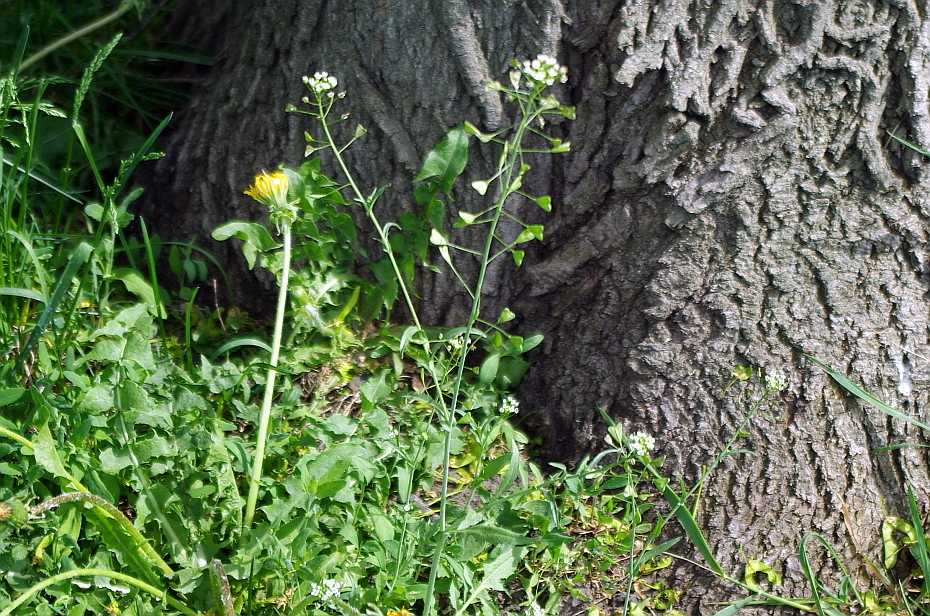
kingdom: Plantae
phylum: Tracheophyta
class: Magnoliopsida
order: Brassicales
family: Brassicaceae
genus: Capsella
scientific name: Capsella bursa-pastoris
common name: Shepherd's purse
